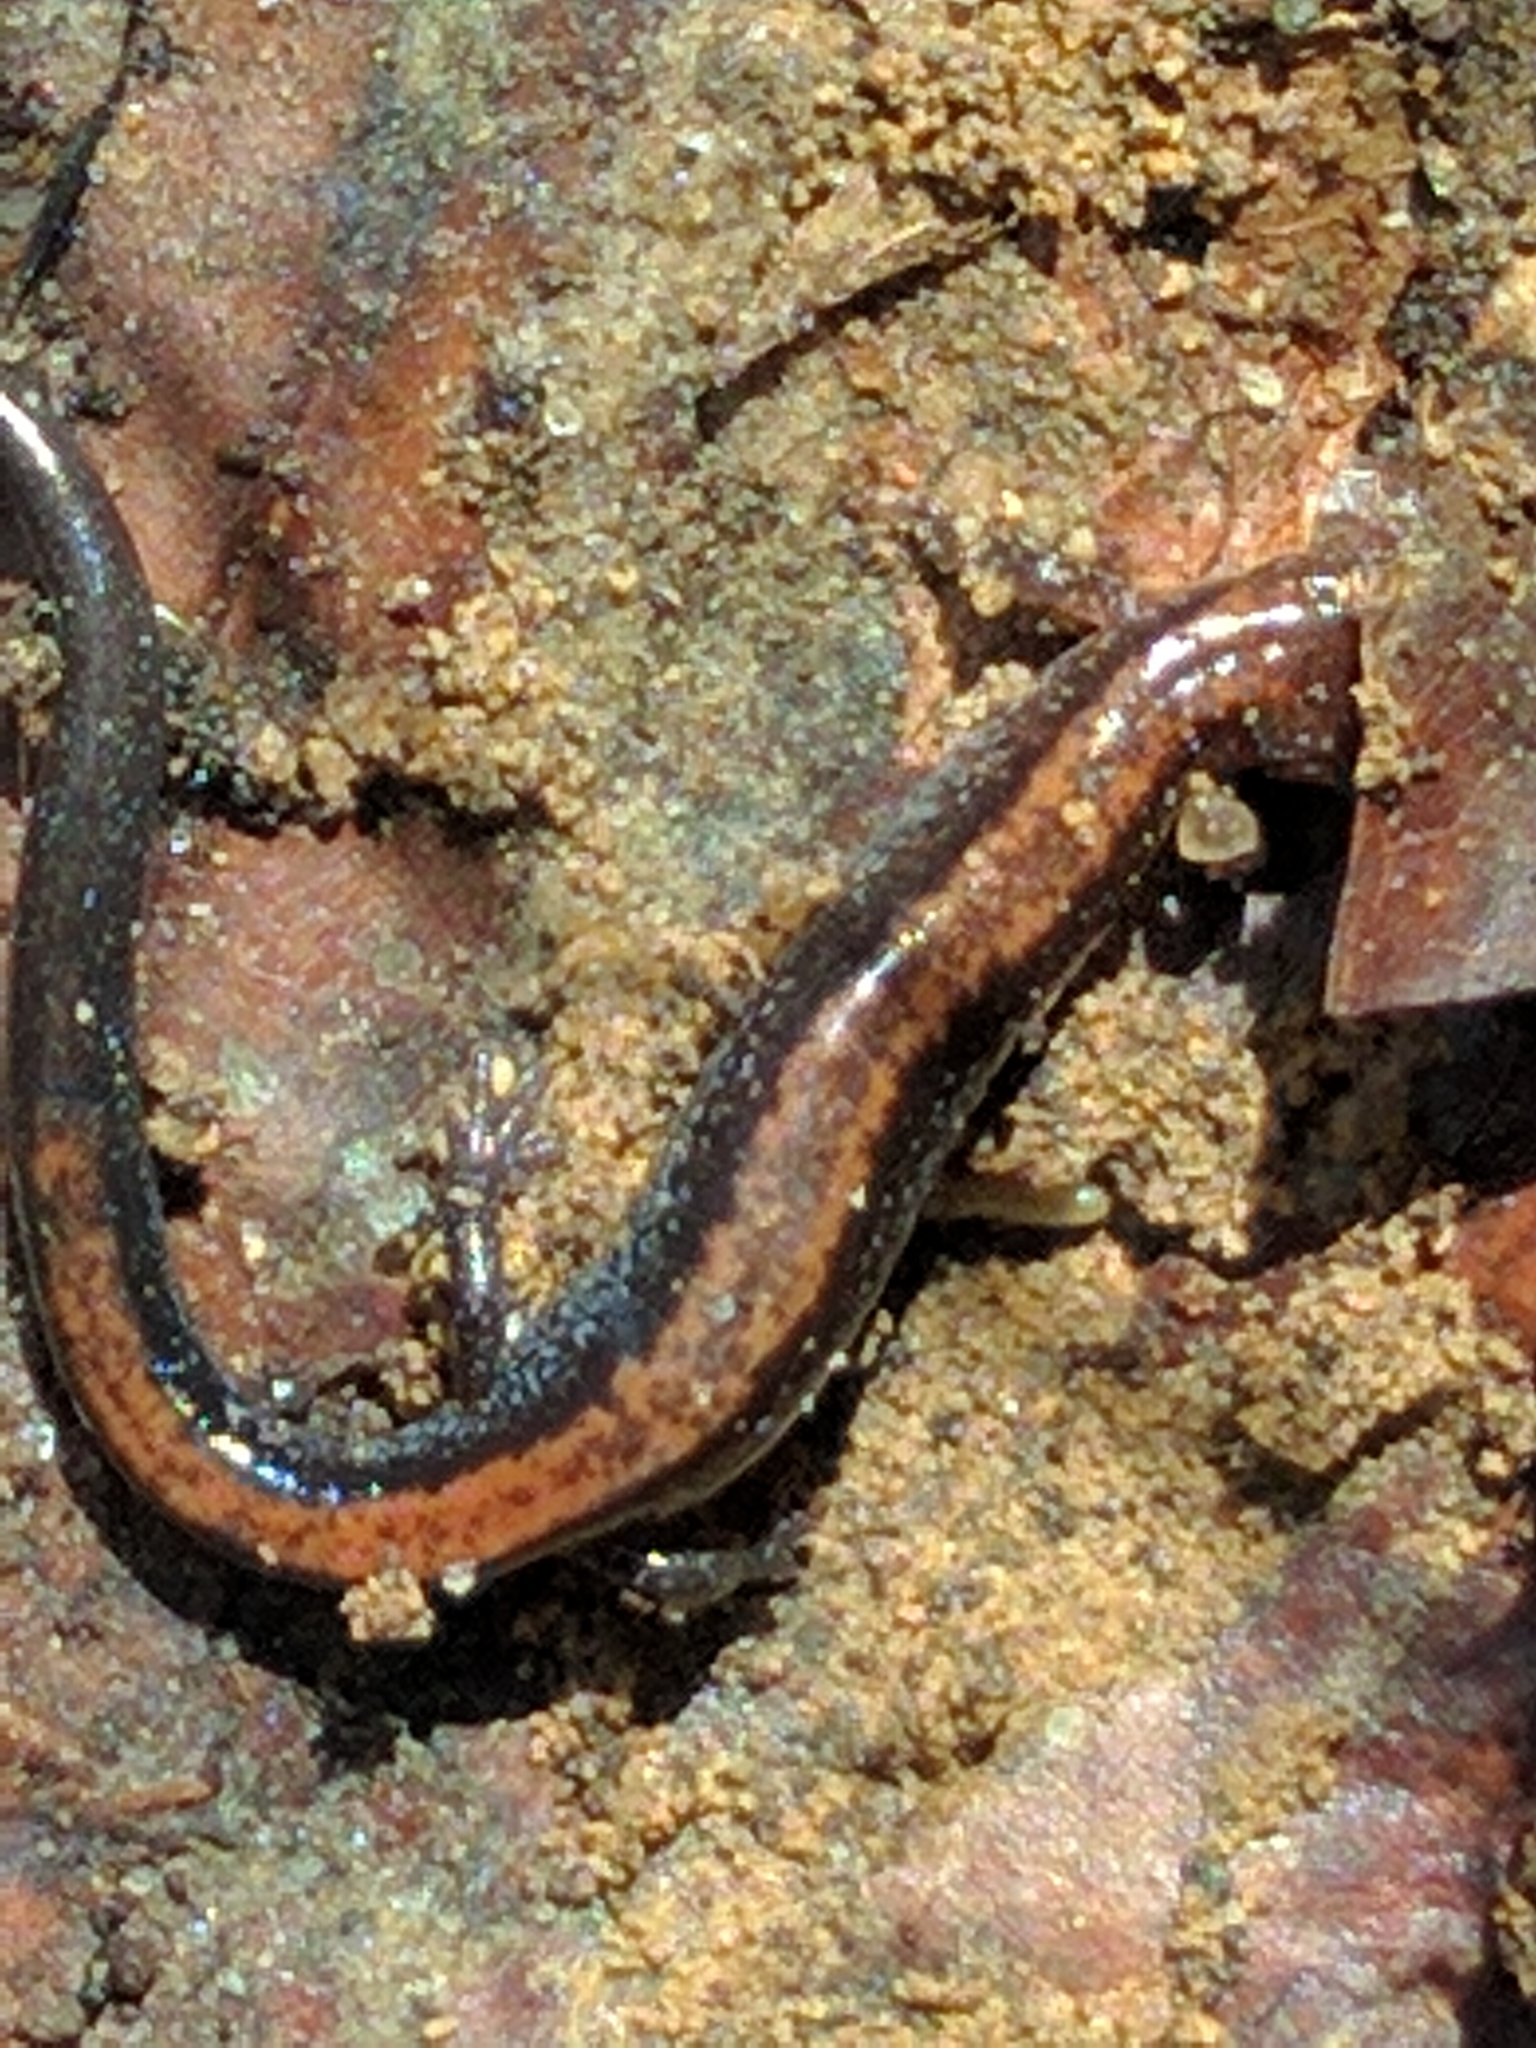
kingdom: Animalia
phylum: Chordata
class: Amphibia
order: Caudata
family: Plethodontidae
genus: Plethodon
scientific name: Plethodon cinereus
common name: Redback salamander
